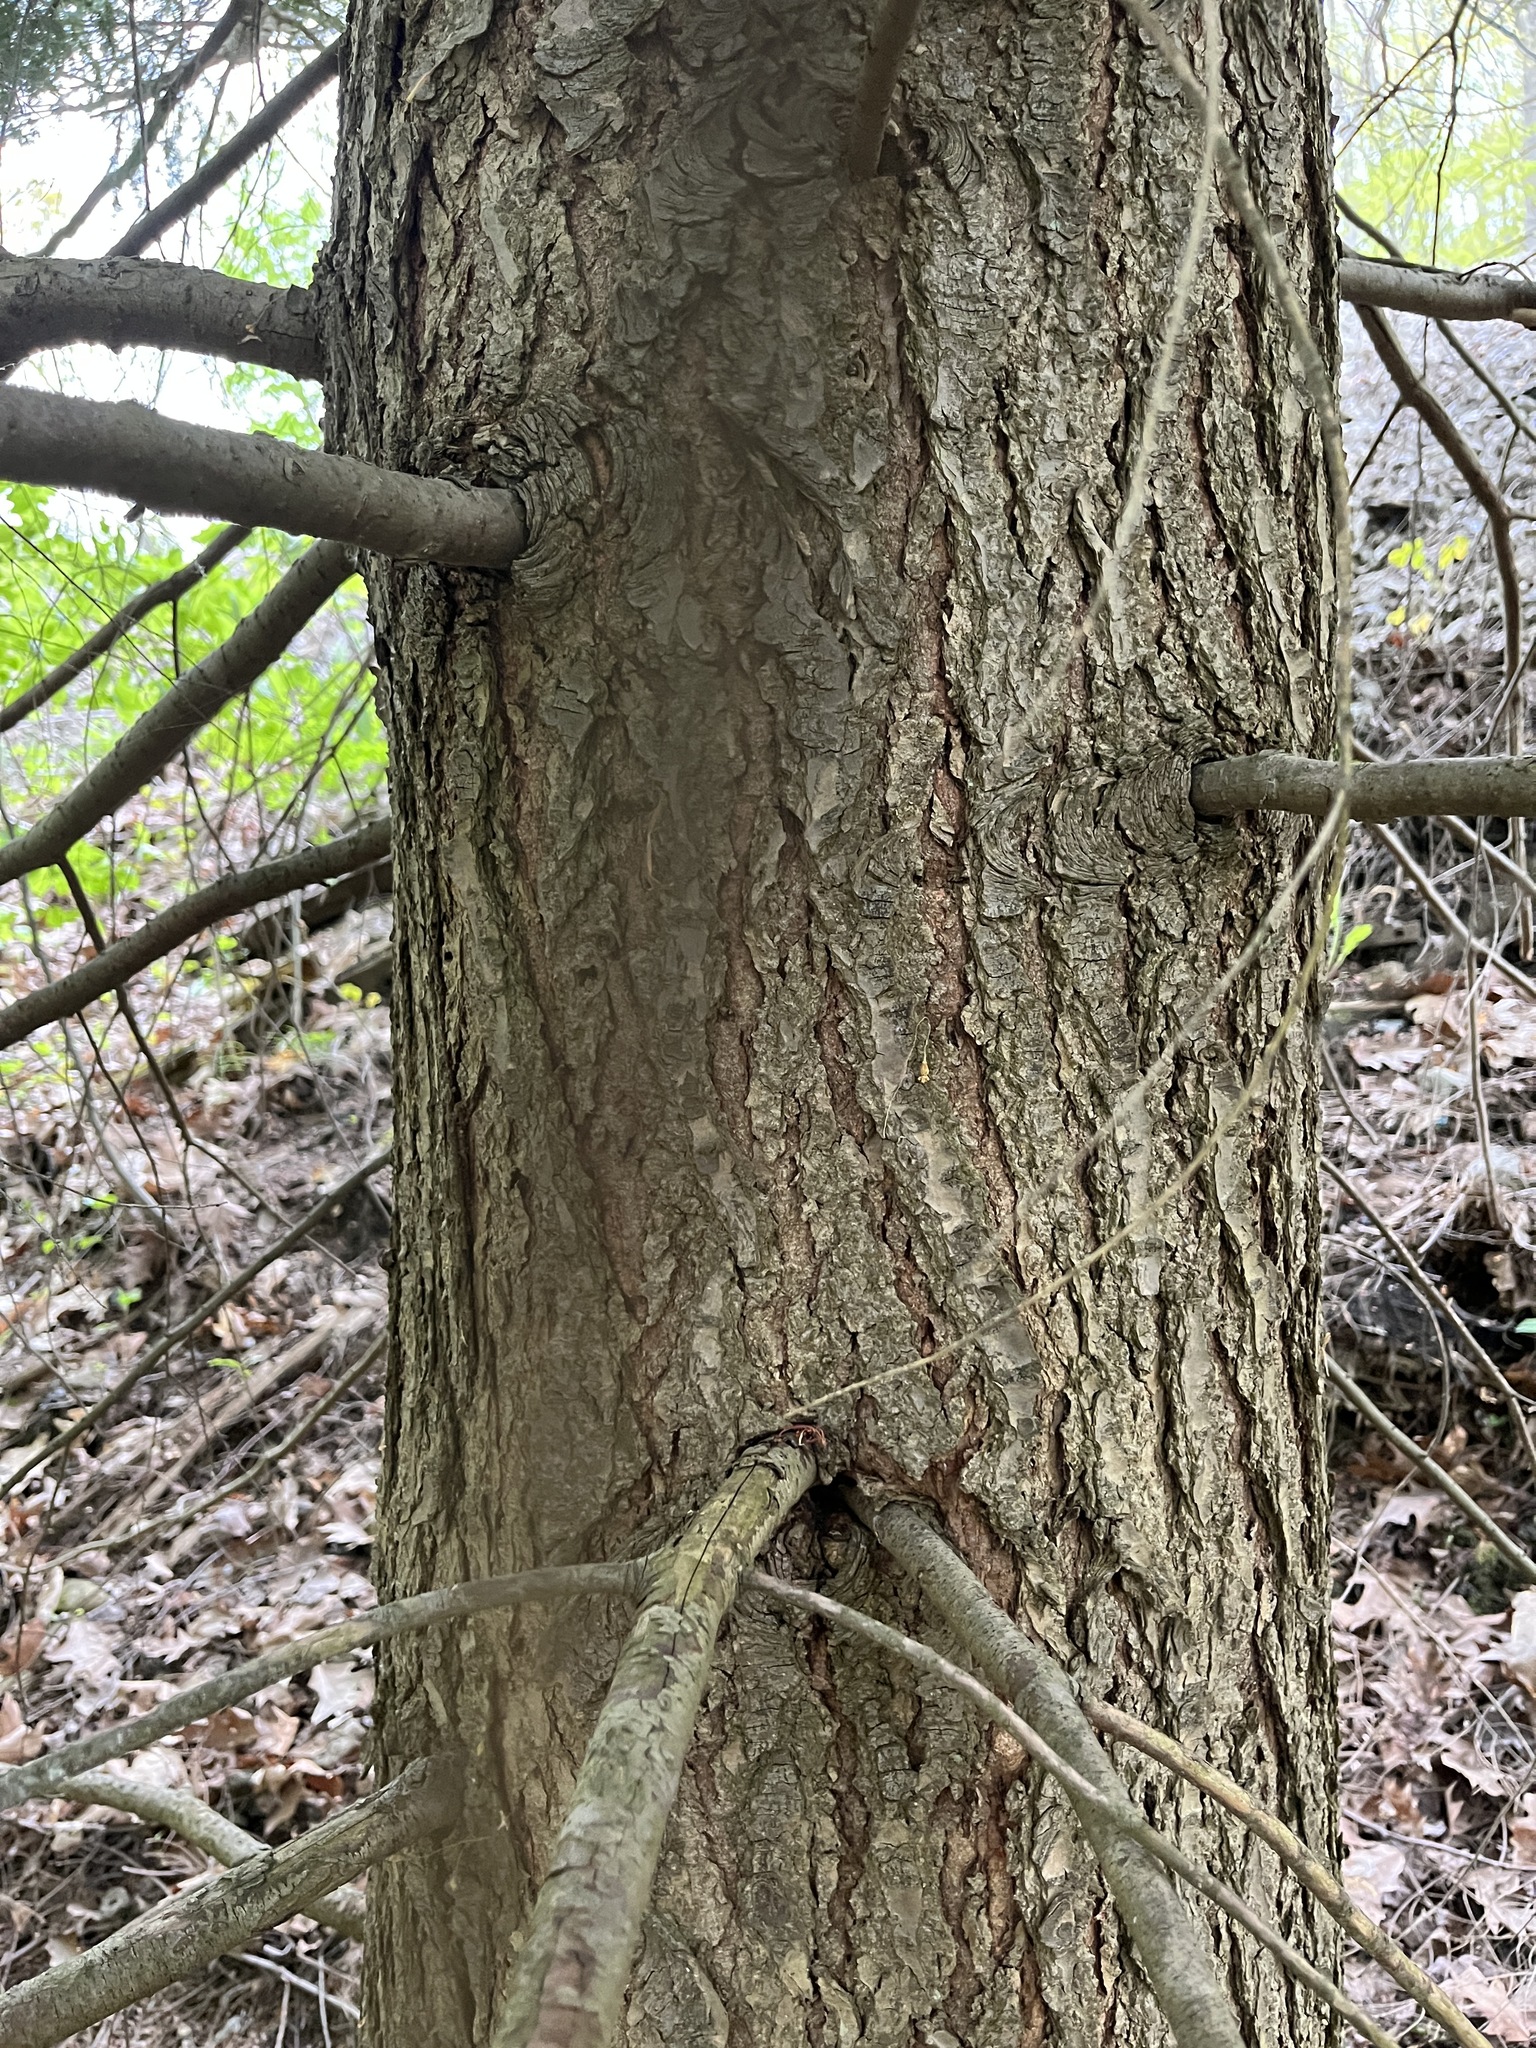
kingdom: Plantae
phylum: Tracheophyta
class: Pinopsida
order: Pinales
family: Pinaceae
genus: Tsuga
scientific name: Tsuga canadensis
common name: Eastern hemlock
